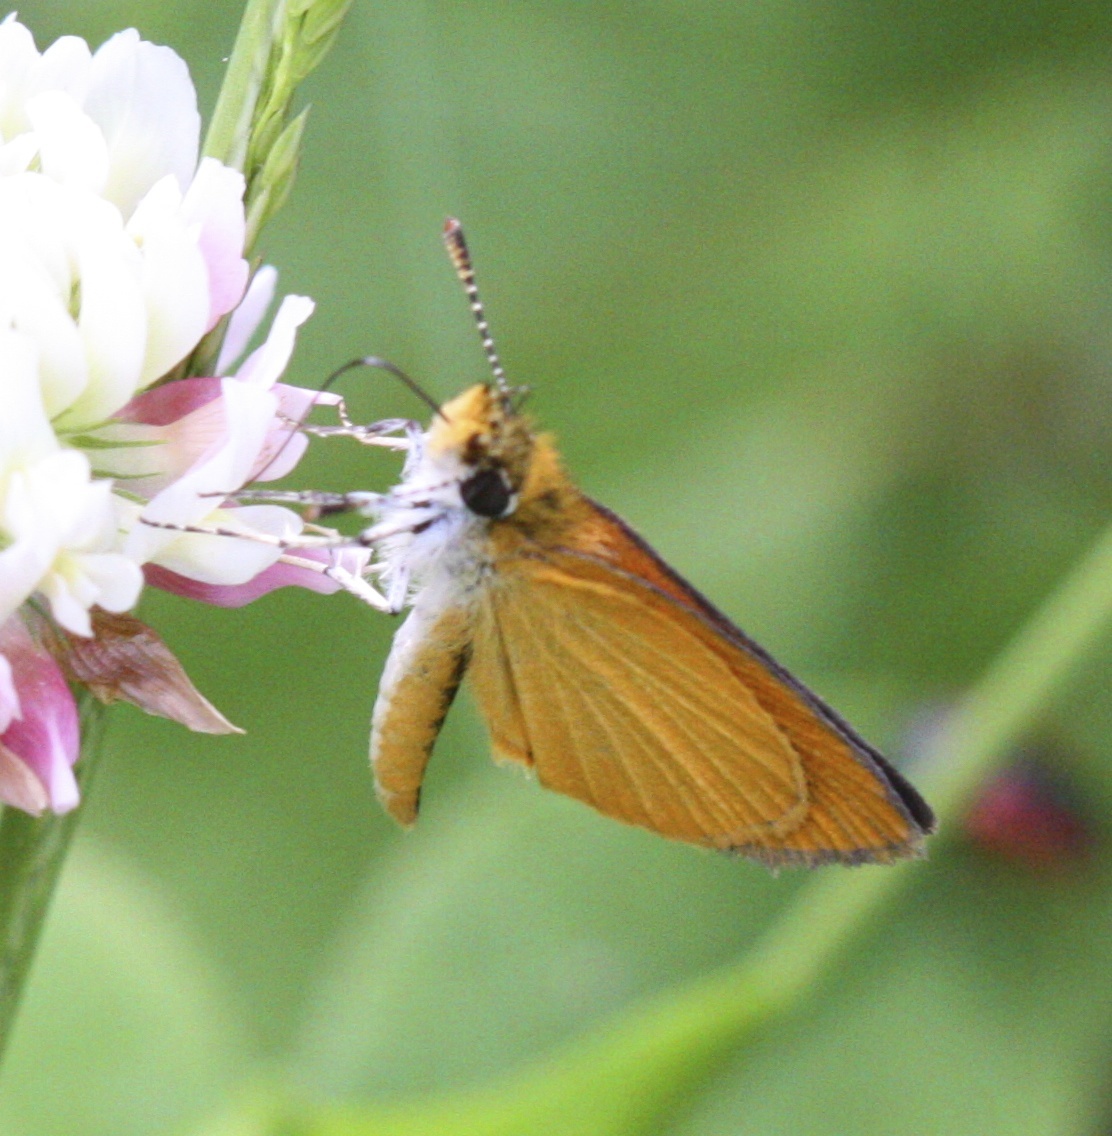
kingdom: Animalia
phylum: Arthropoda
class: Insecta
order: Lepidoptera
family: Hesperiidae
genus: Ancyloxypha
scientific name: Ancyloxypha numitor
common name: Least skipper
